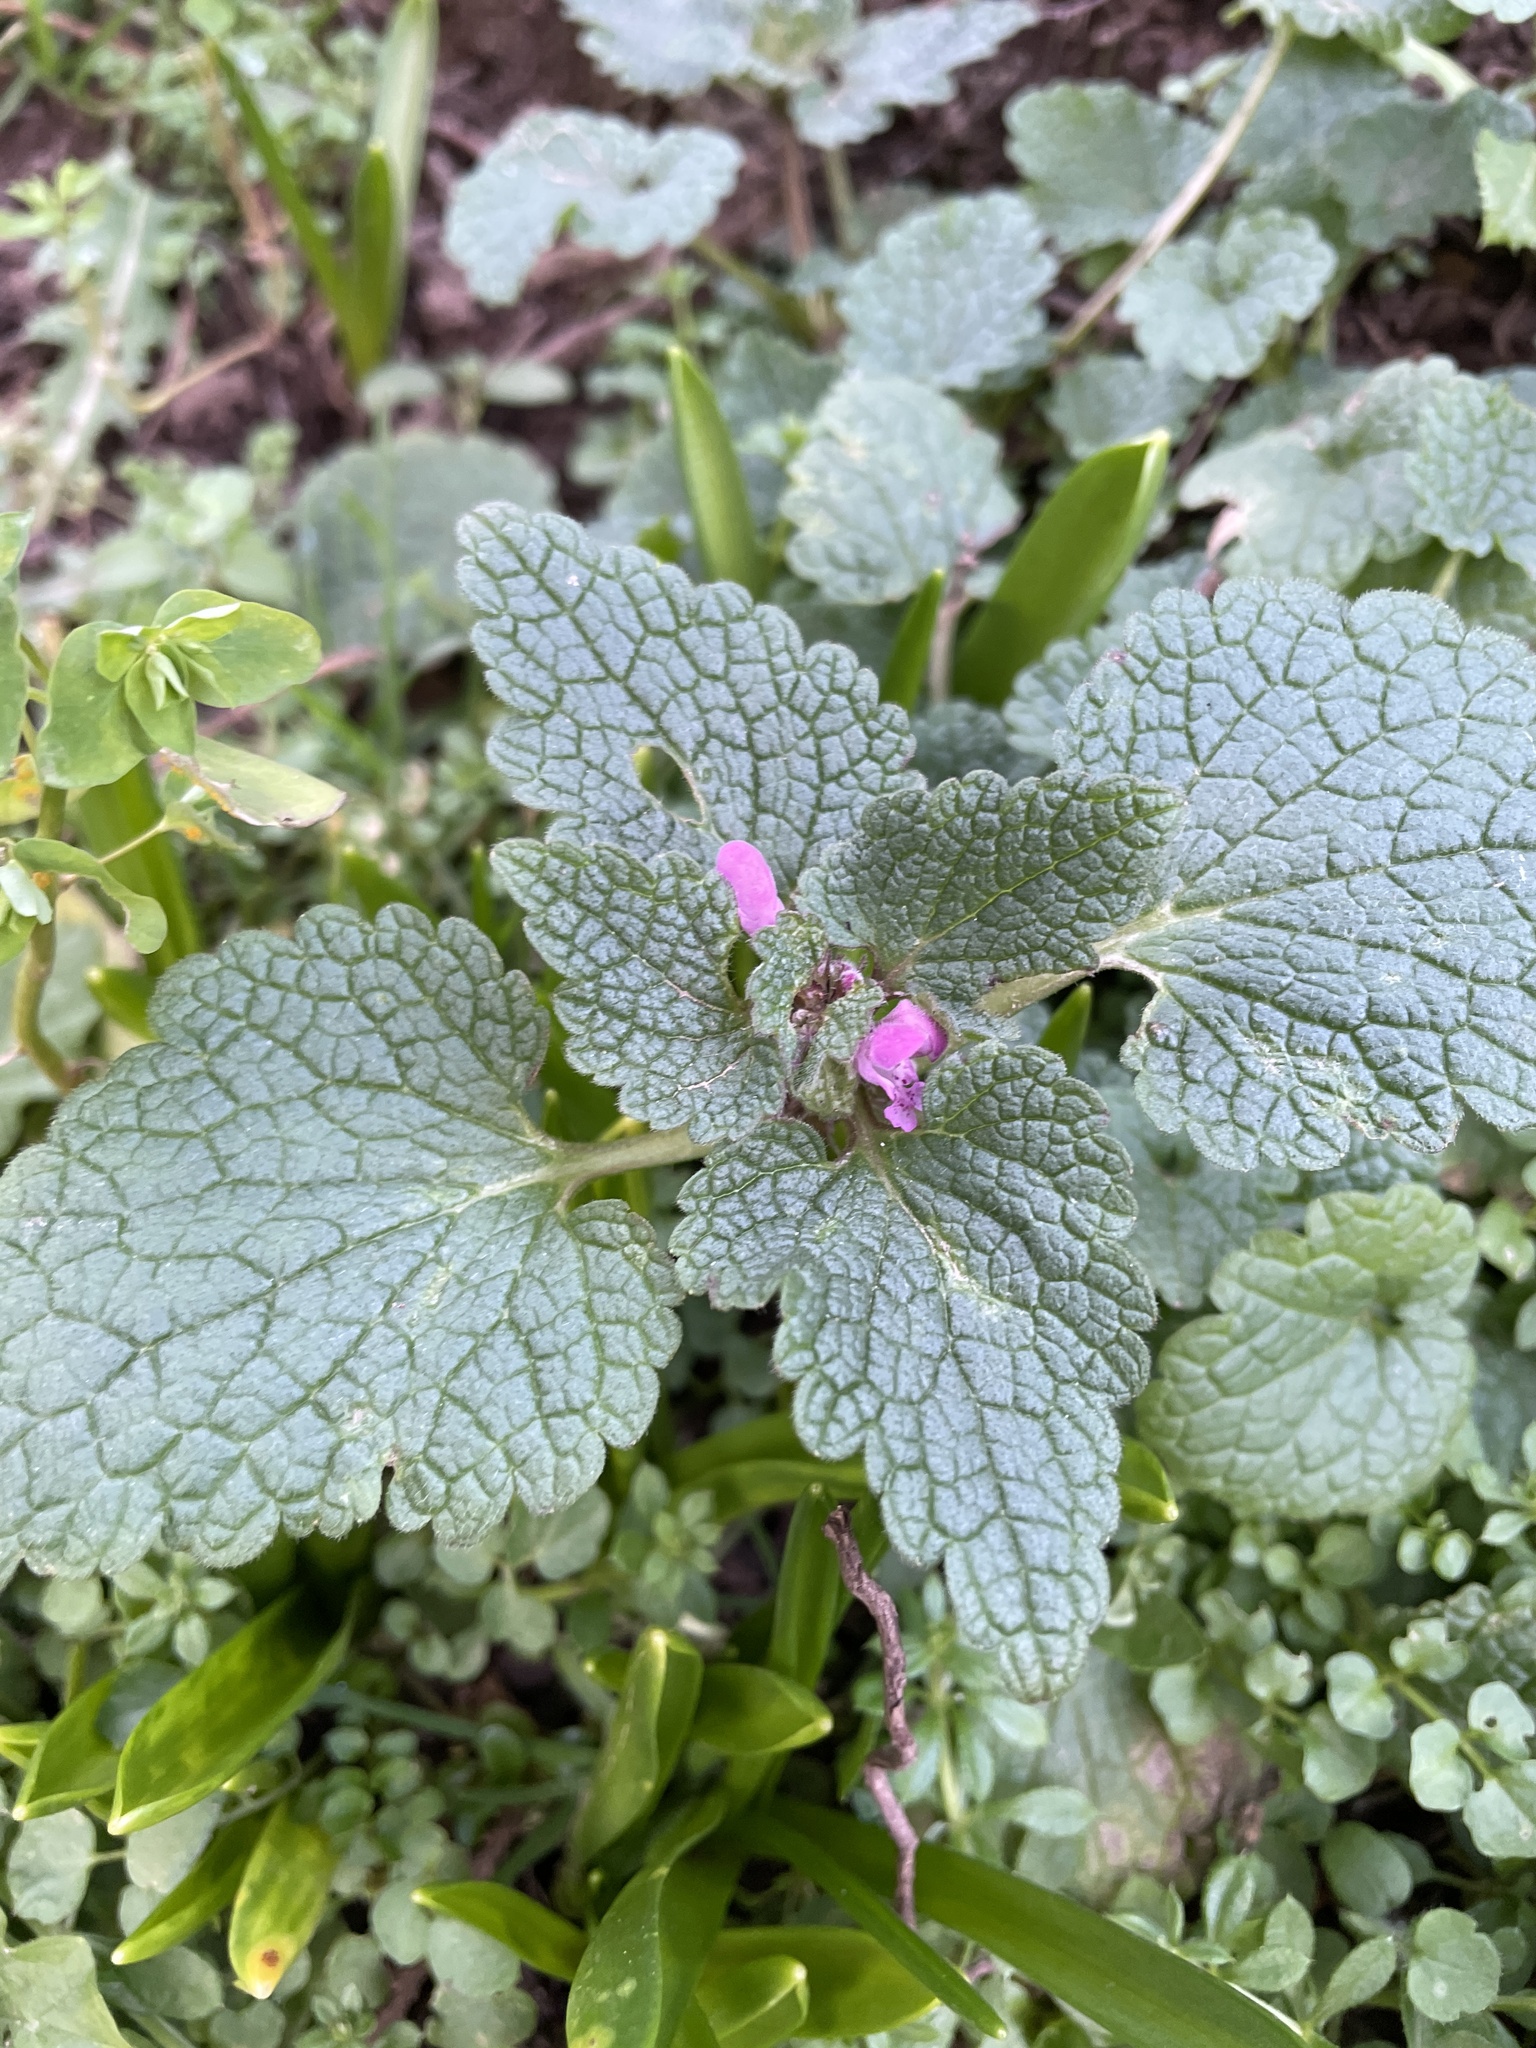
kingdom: Plantae
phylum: Tracheophyta
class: Magnoliopsida
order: Lamiales
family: Lamiaceae
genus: Lamium
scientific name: Lamium purpureum
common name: Red dead-nettle
